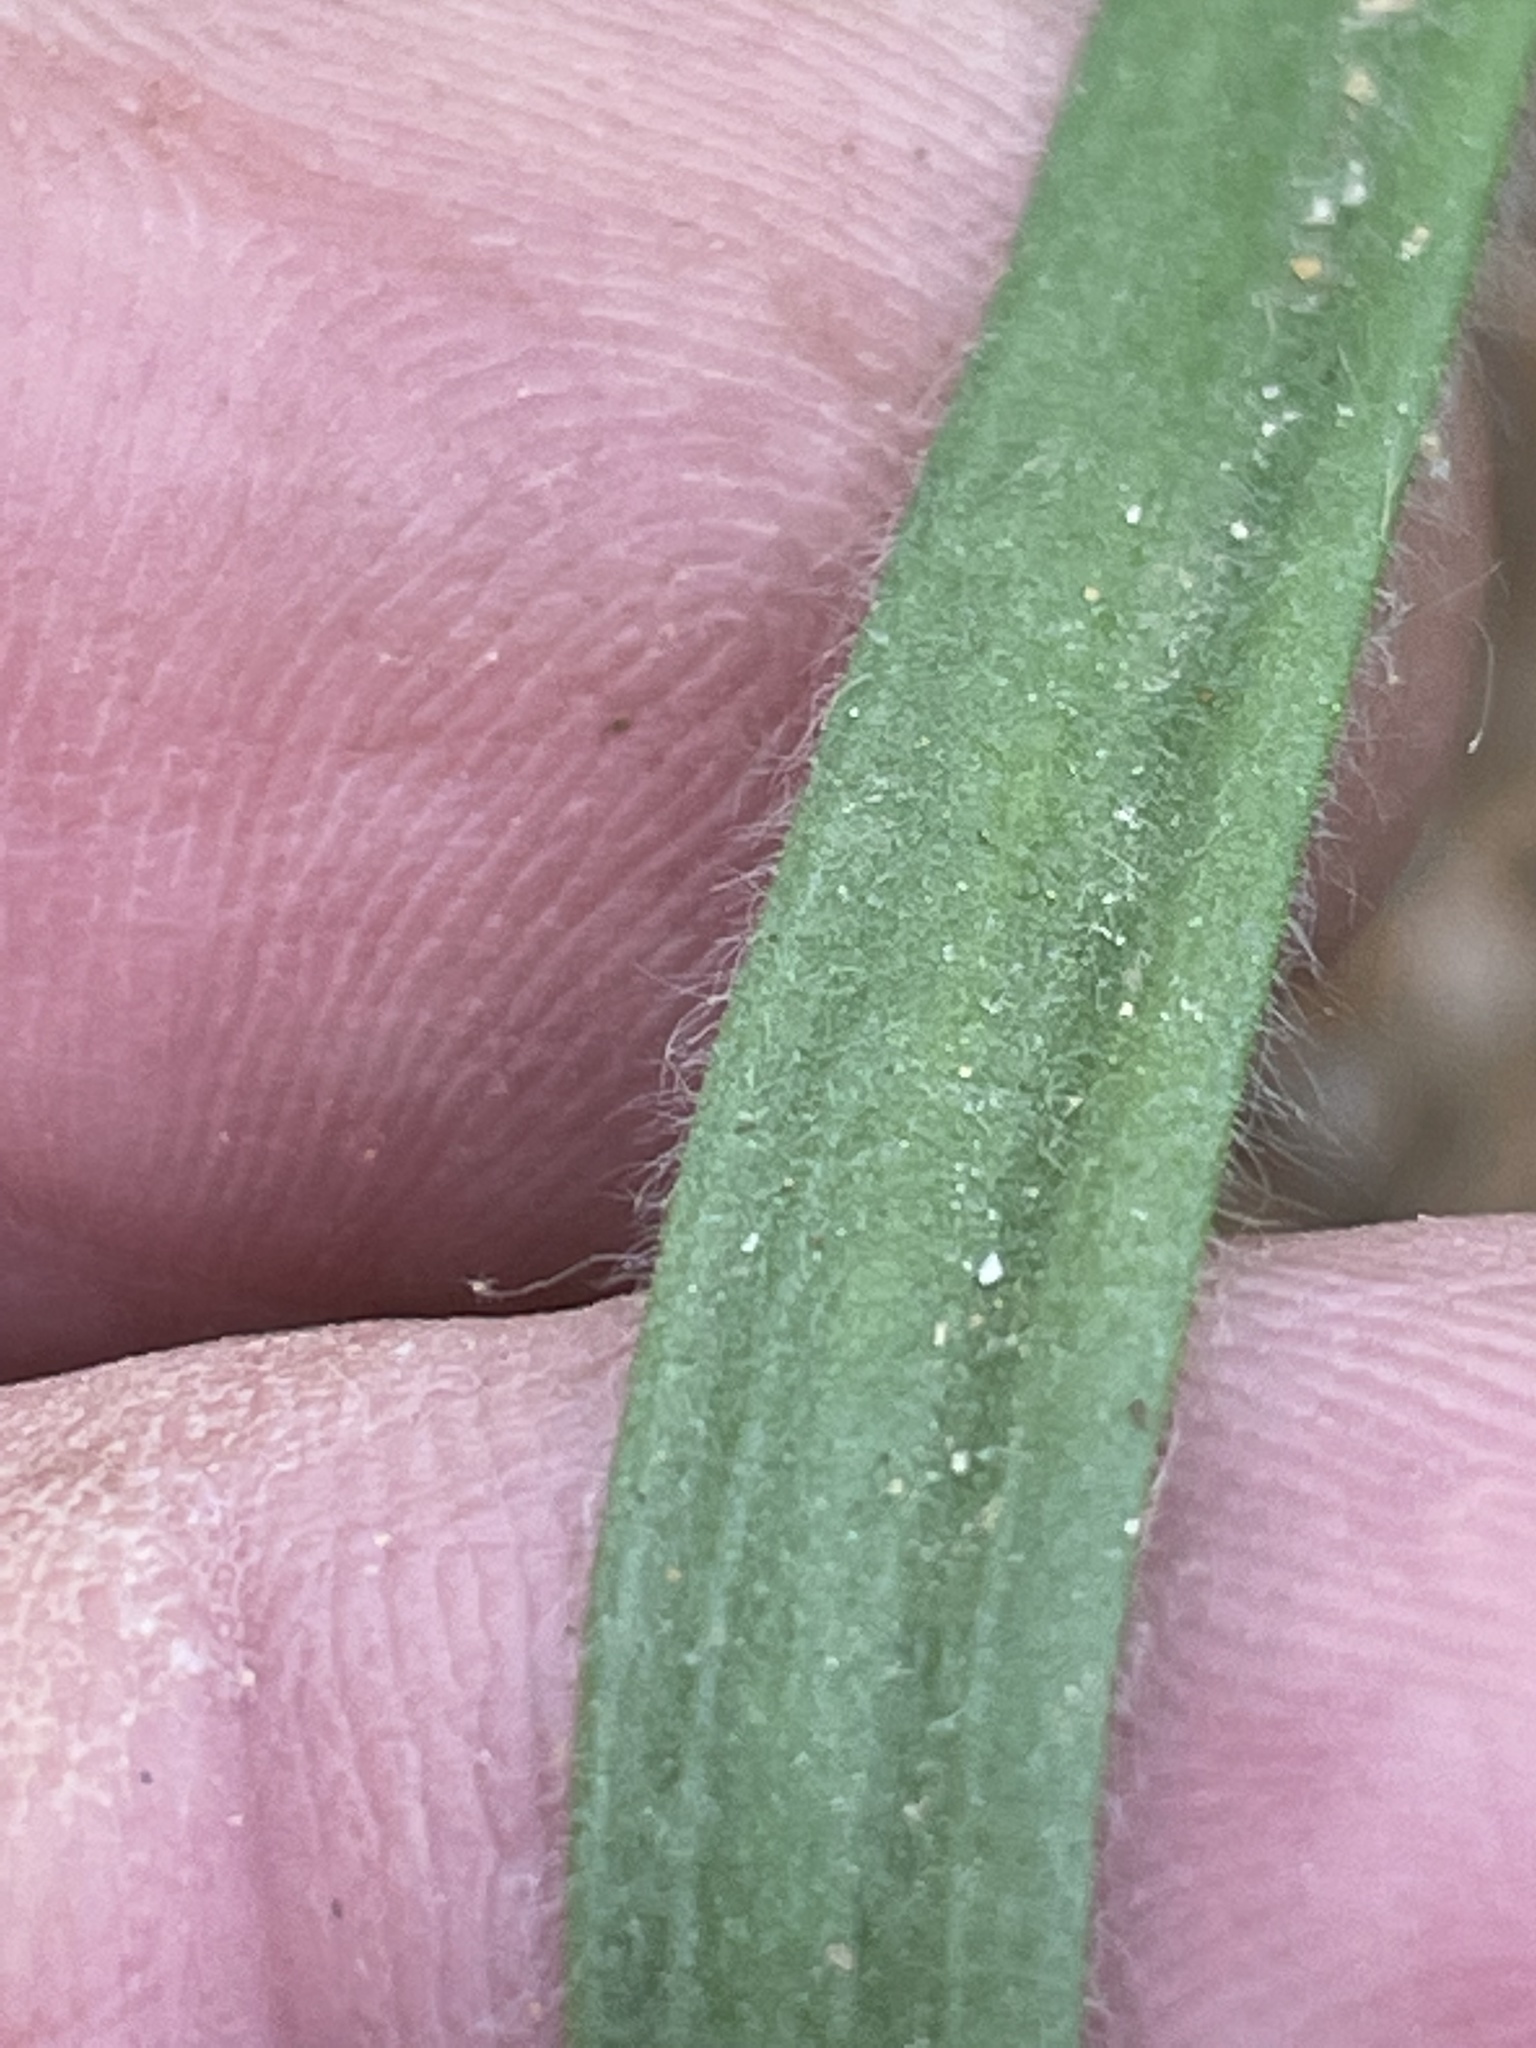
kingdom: Plantae
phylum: Tracheophyta
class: Magnoliopsida
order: Lamiales
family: Plantaginaceae
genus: Plantago
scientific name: Plantago aristata
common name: Bracted plantain
